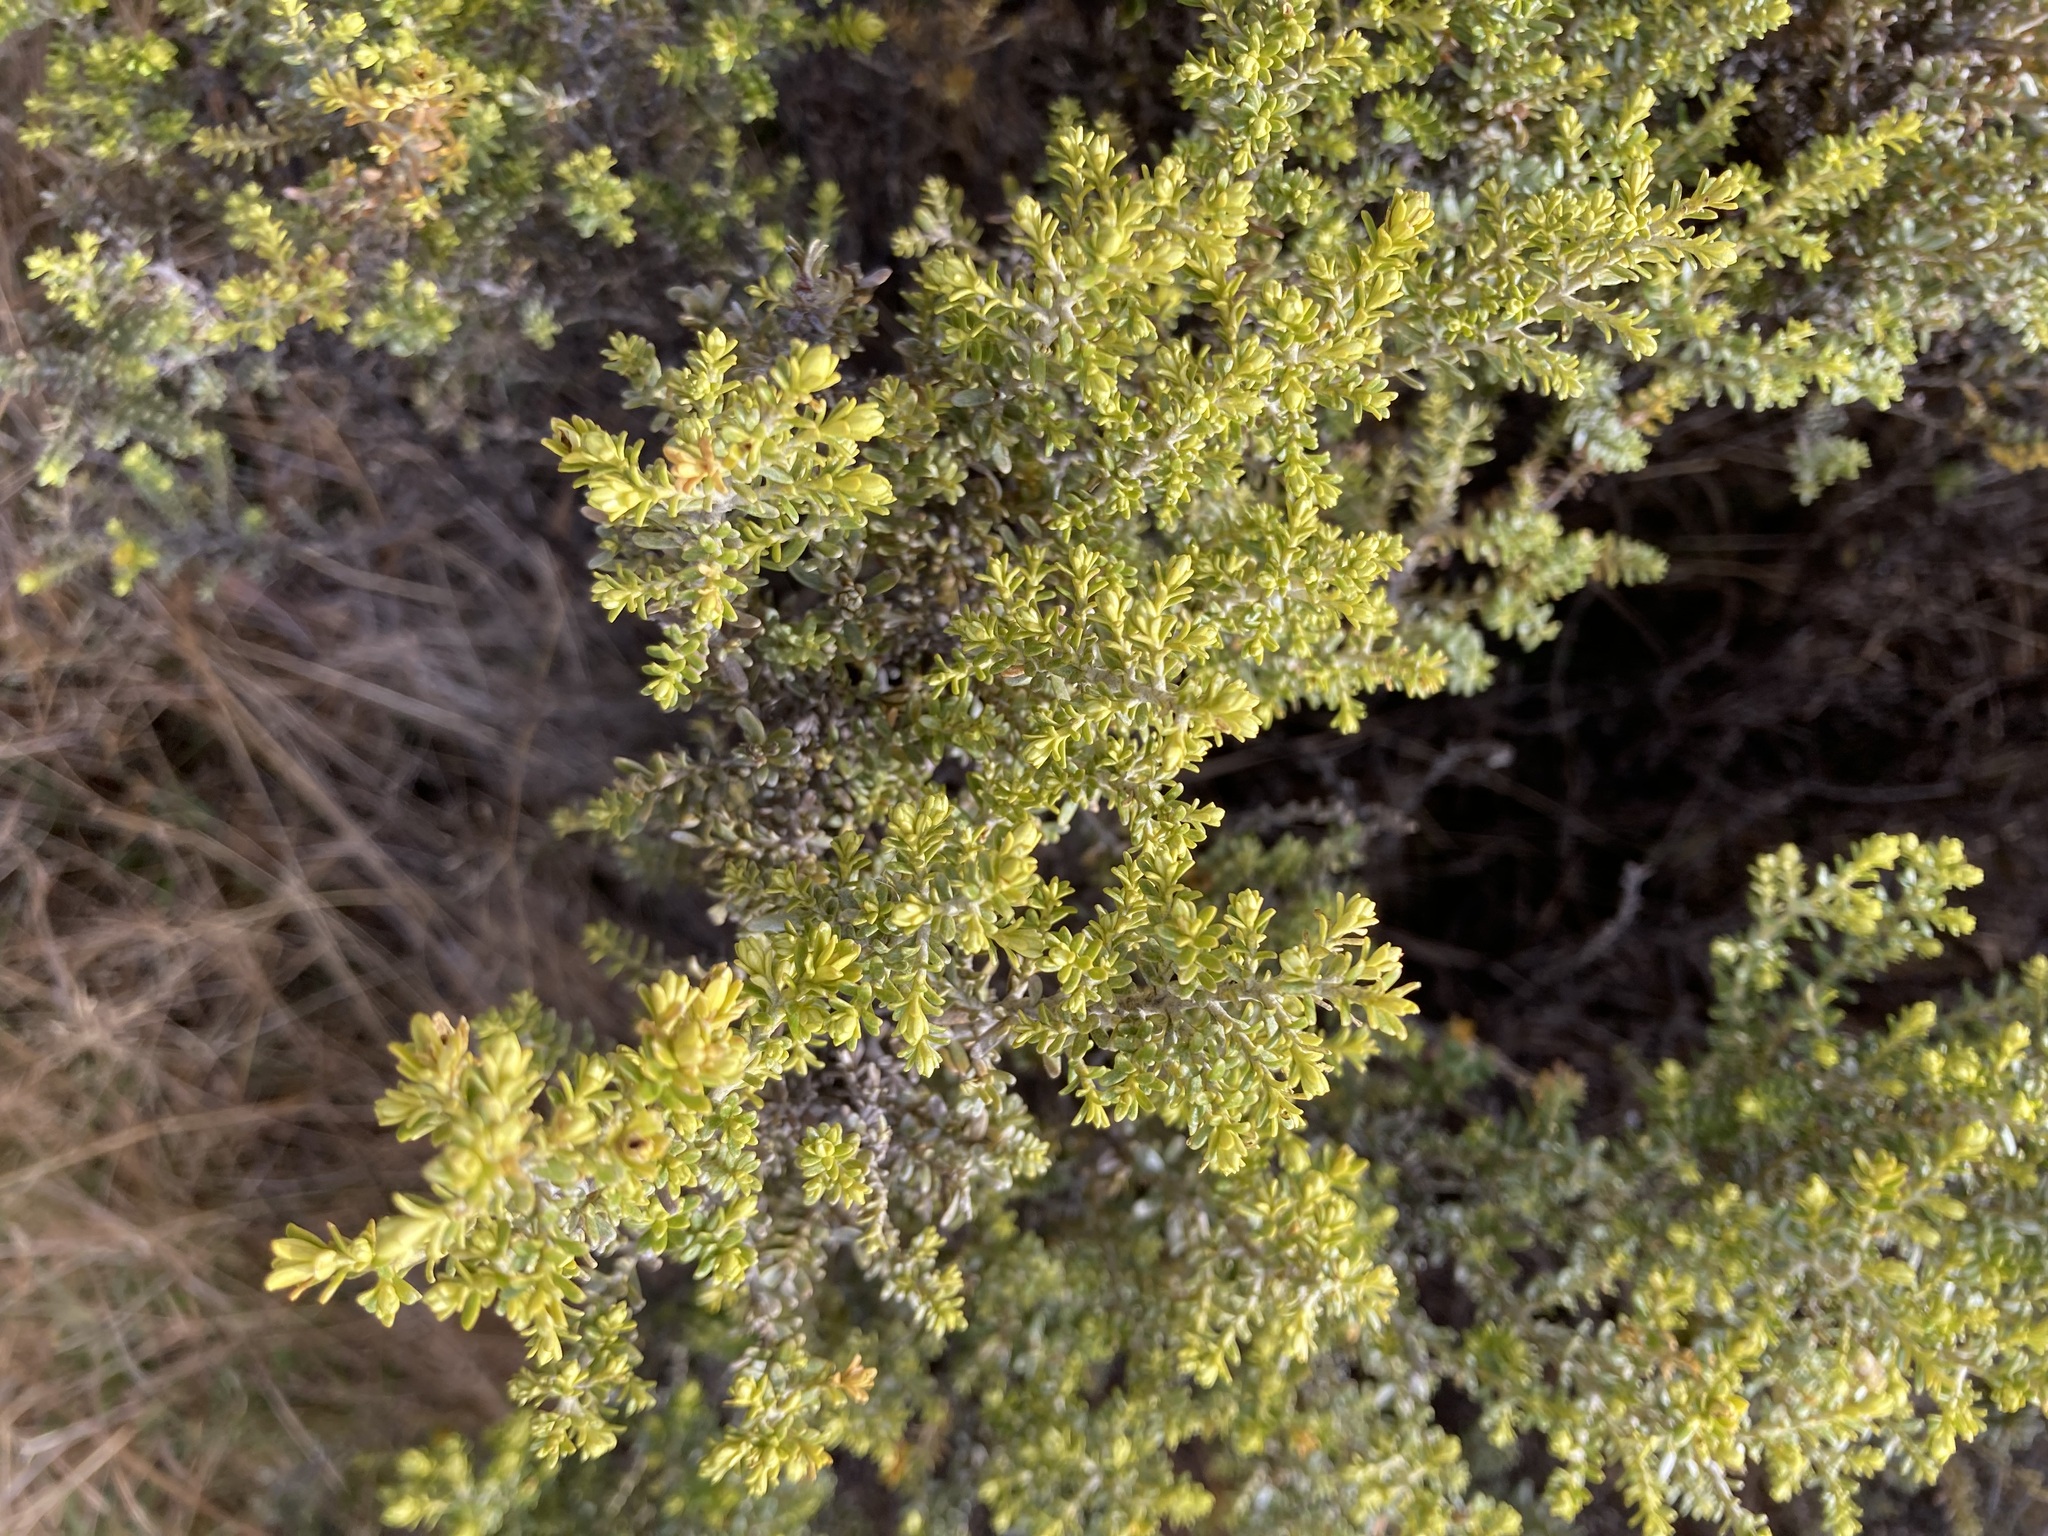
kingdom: Plantae
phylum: Tracheophyta
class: Magnoliopsida
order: Asterales
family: Asteraceae
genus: Ozothamnus
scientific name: Ozothamnus leptophyllus
